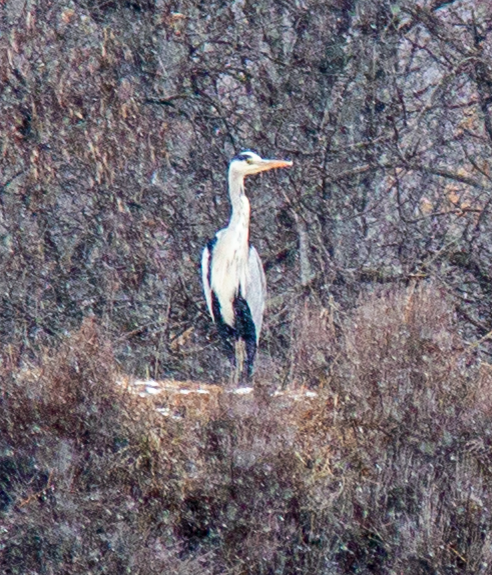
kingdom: Animalia
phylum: Chordata
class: Aves
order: Pelecaniformes
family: Ardeidae
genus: Ardea
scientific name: Ardea cinerea
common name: Grey heron
